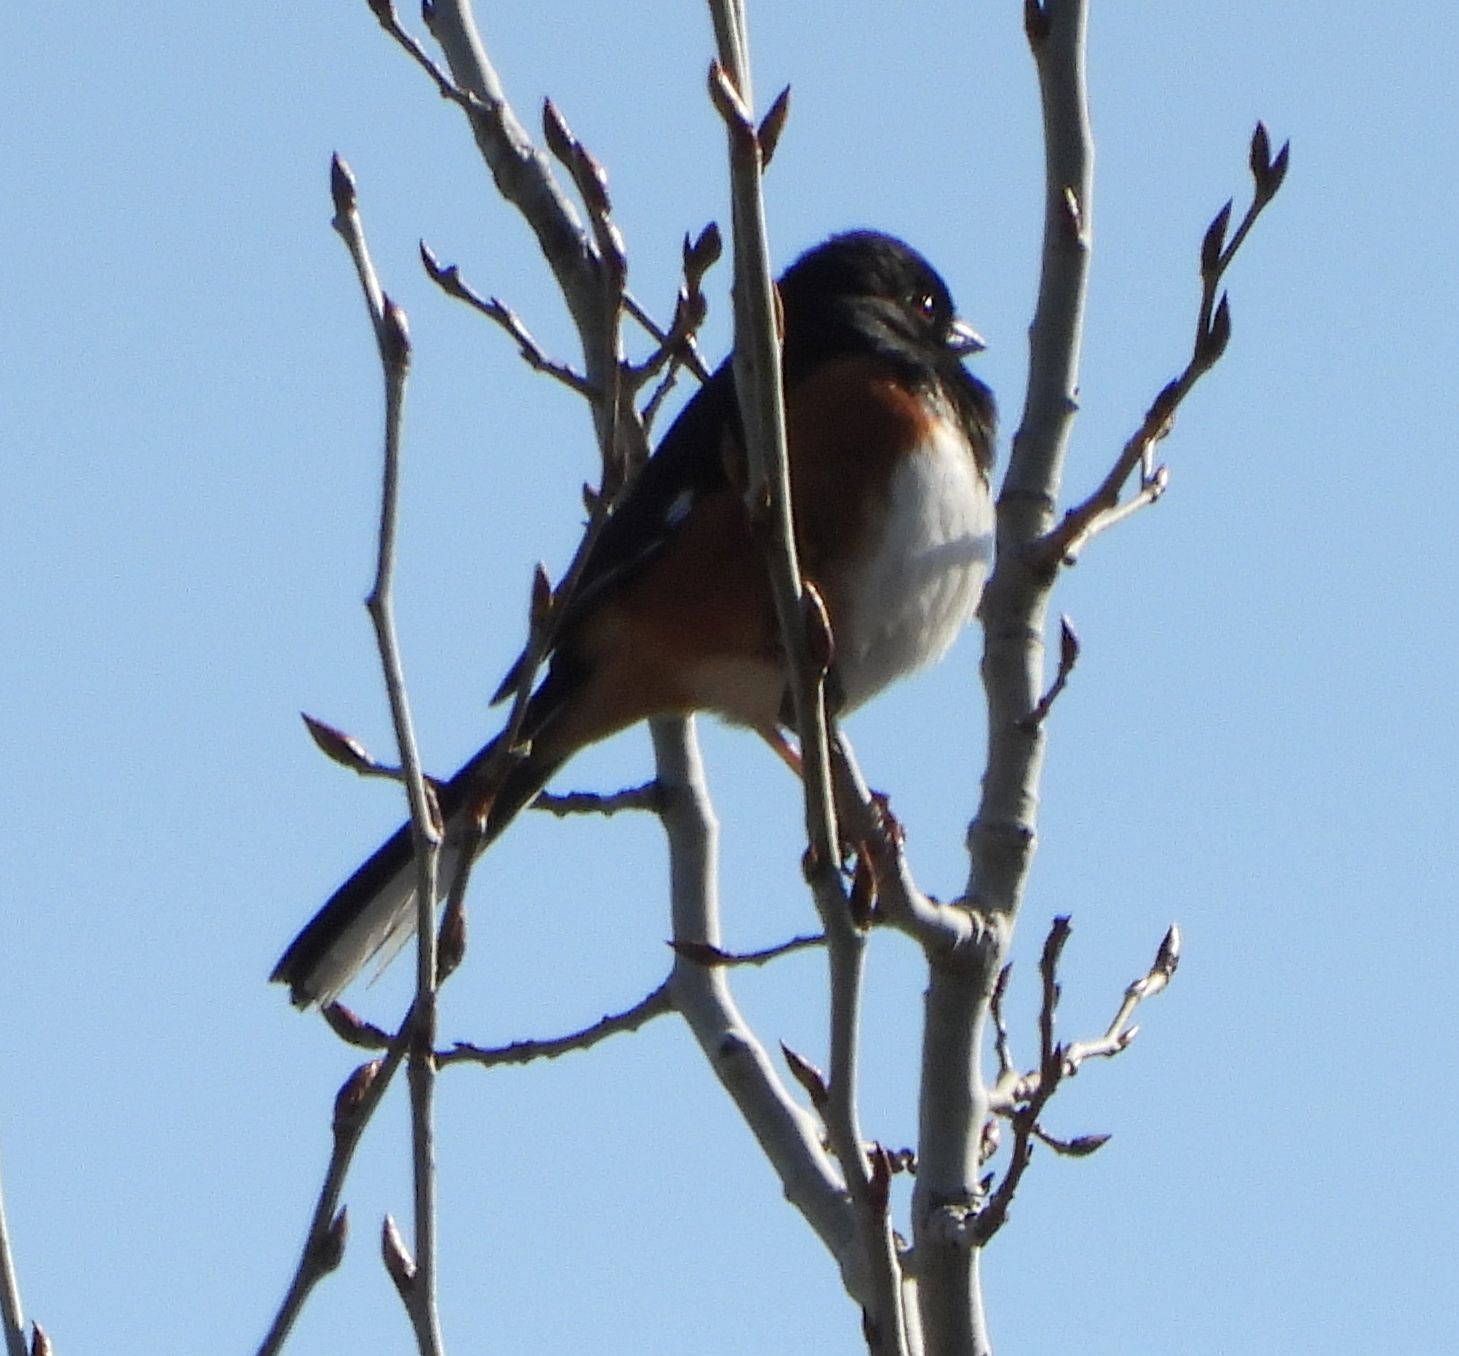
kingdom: Animalia
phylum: Chordata
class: Aves
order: Passeriformes
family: Passerellidae
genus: Pipilo
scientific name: Pipilo erythrophthalmus
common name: Eastern towhee
